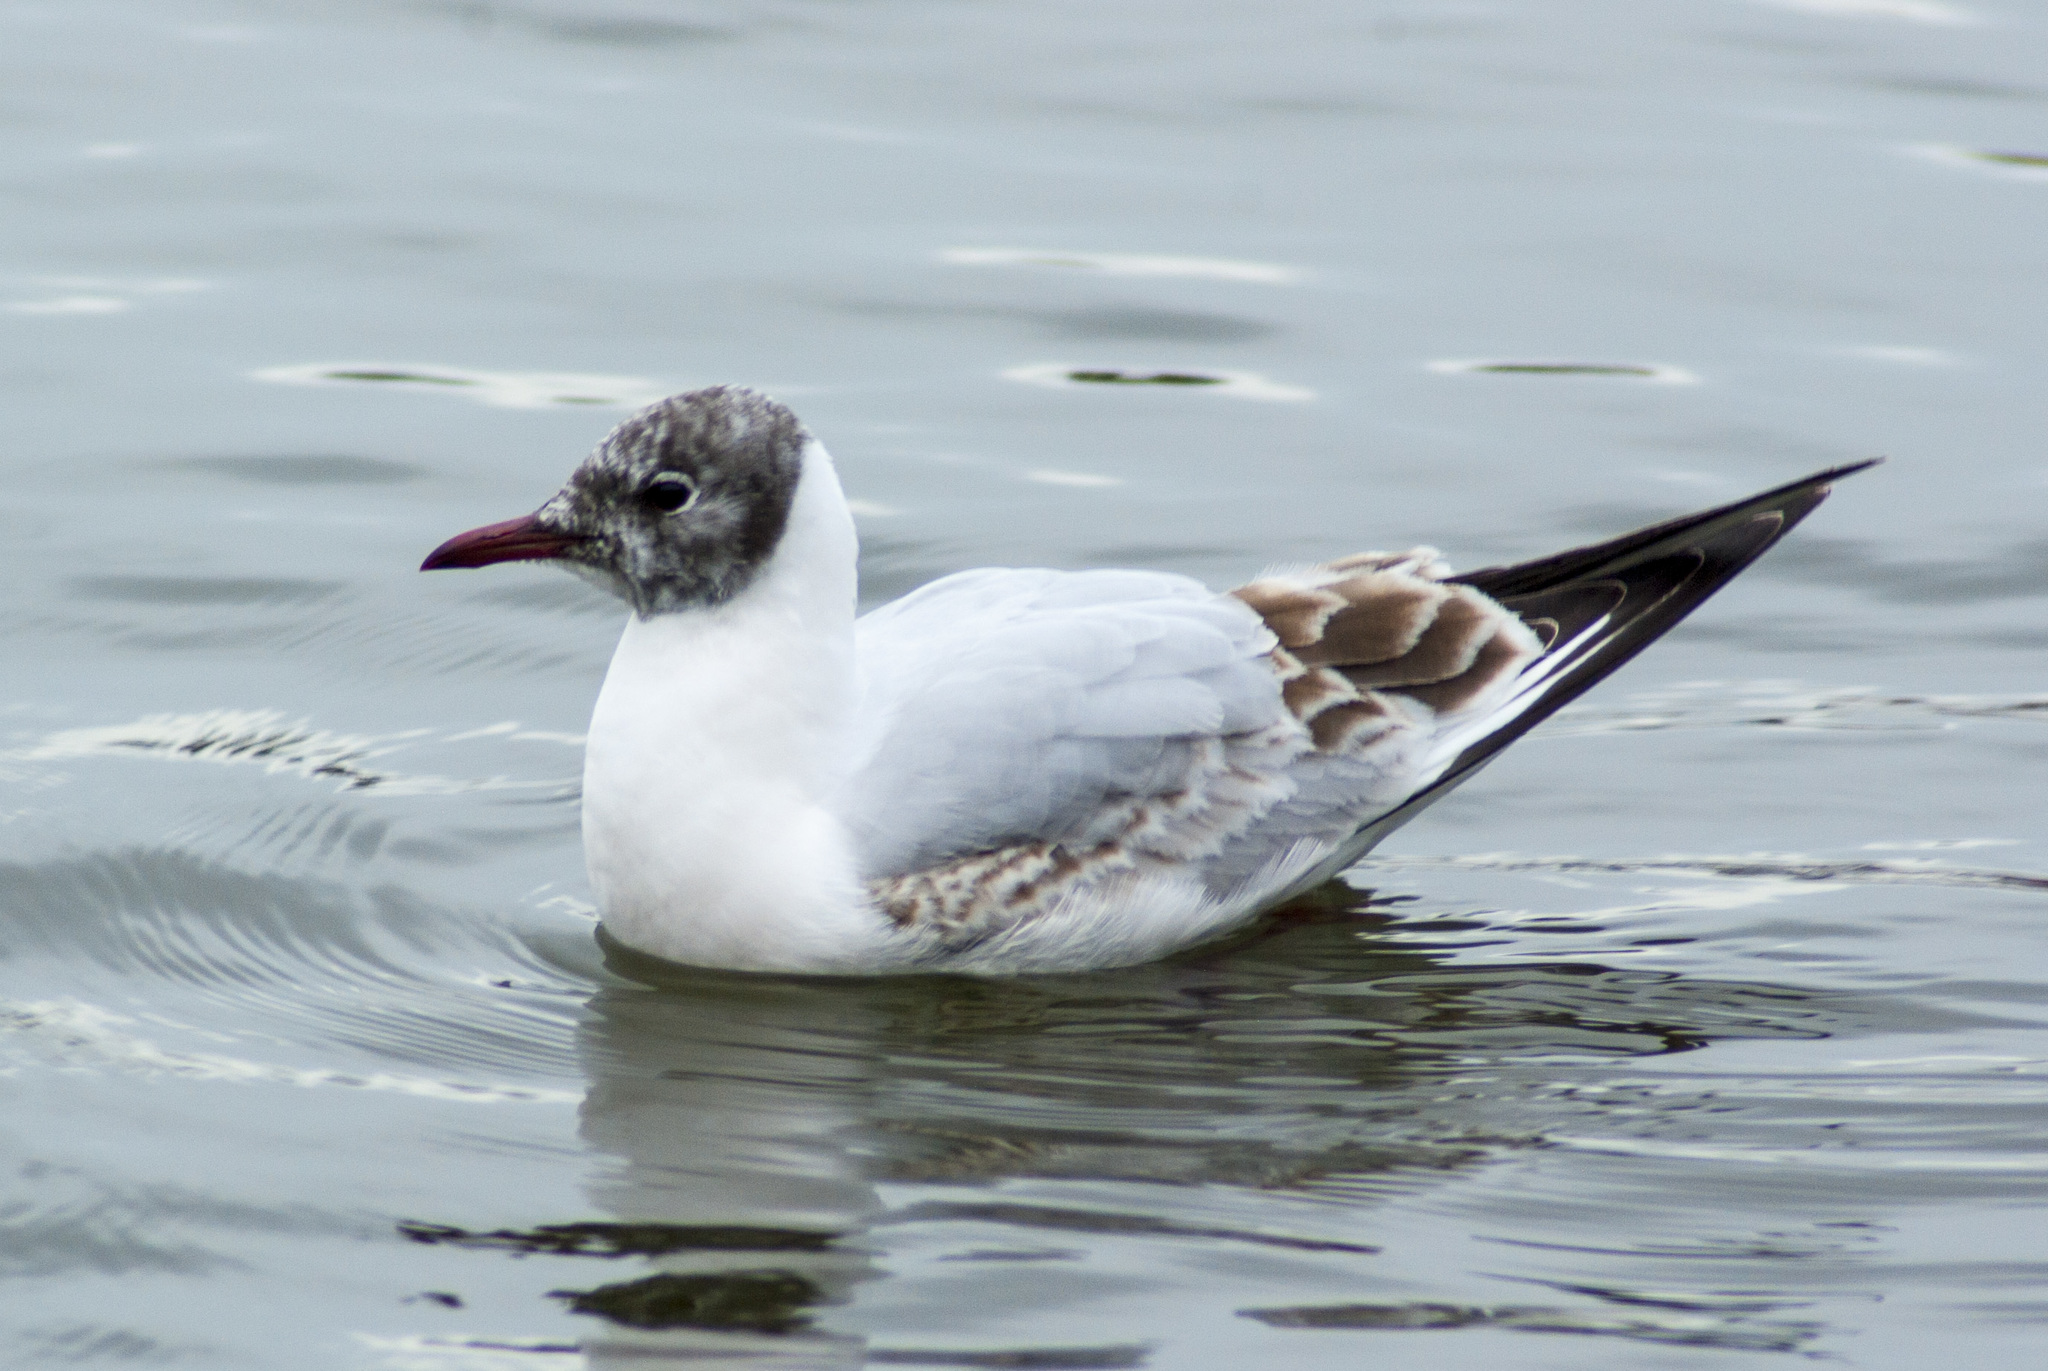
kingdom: Animalia
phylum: Chordata
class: Aves
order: Charadriiformes
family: Laridae
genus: Chroicocephalus
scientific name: Chroicocephalus ridibundus
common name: Black-headed gull
